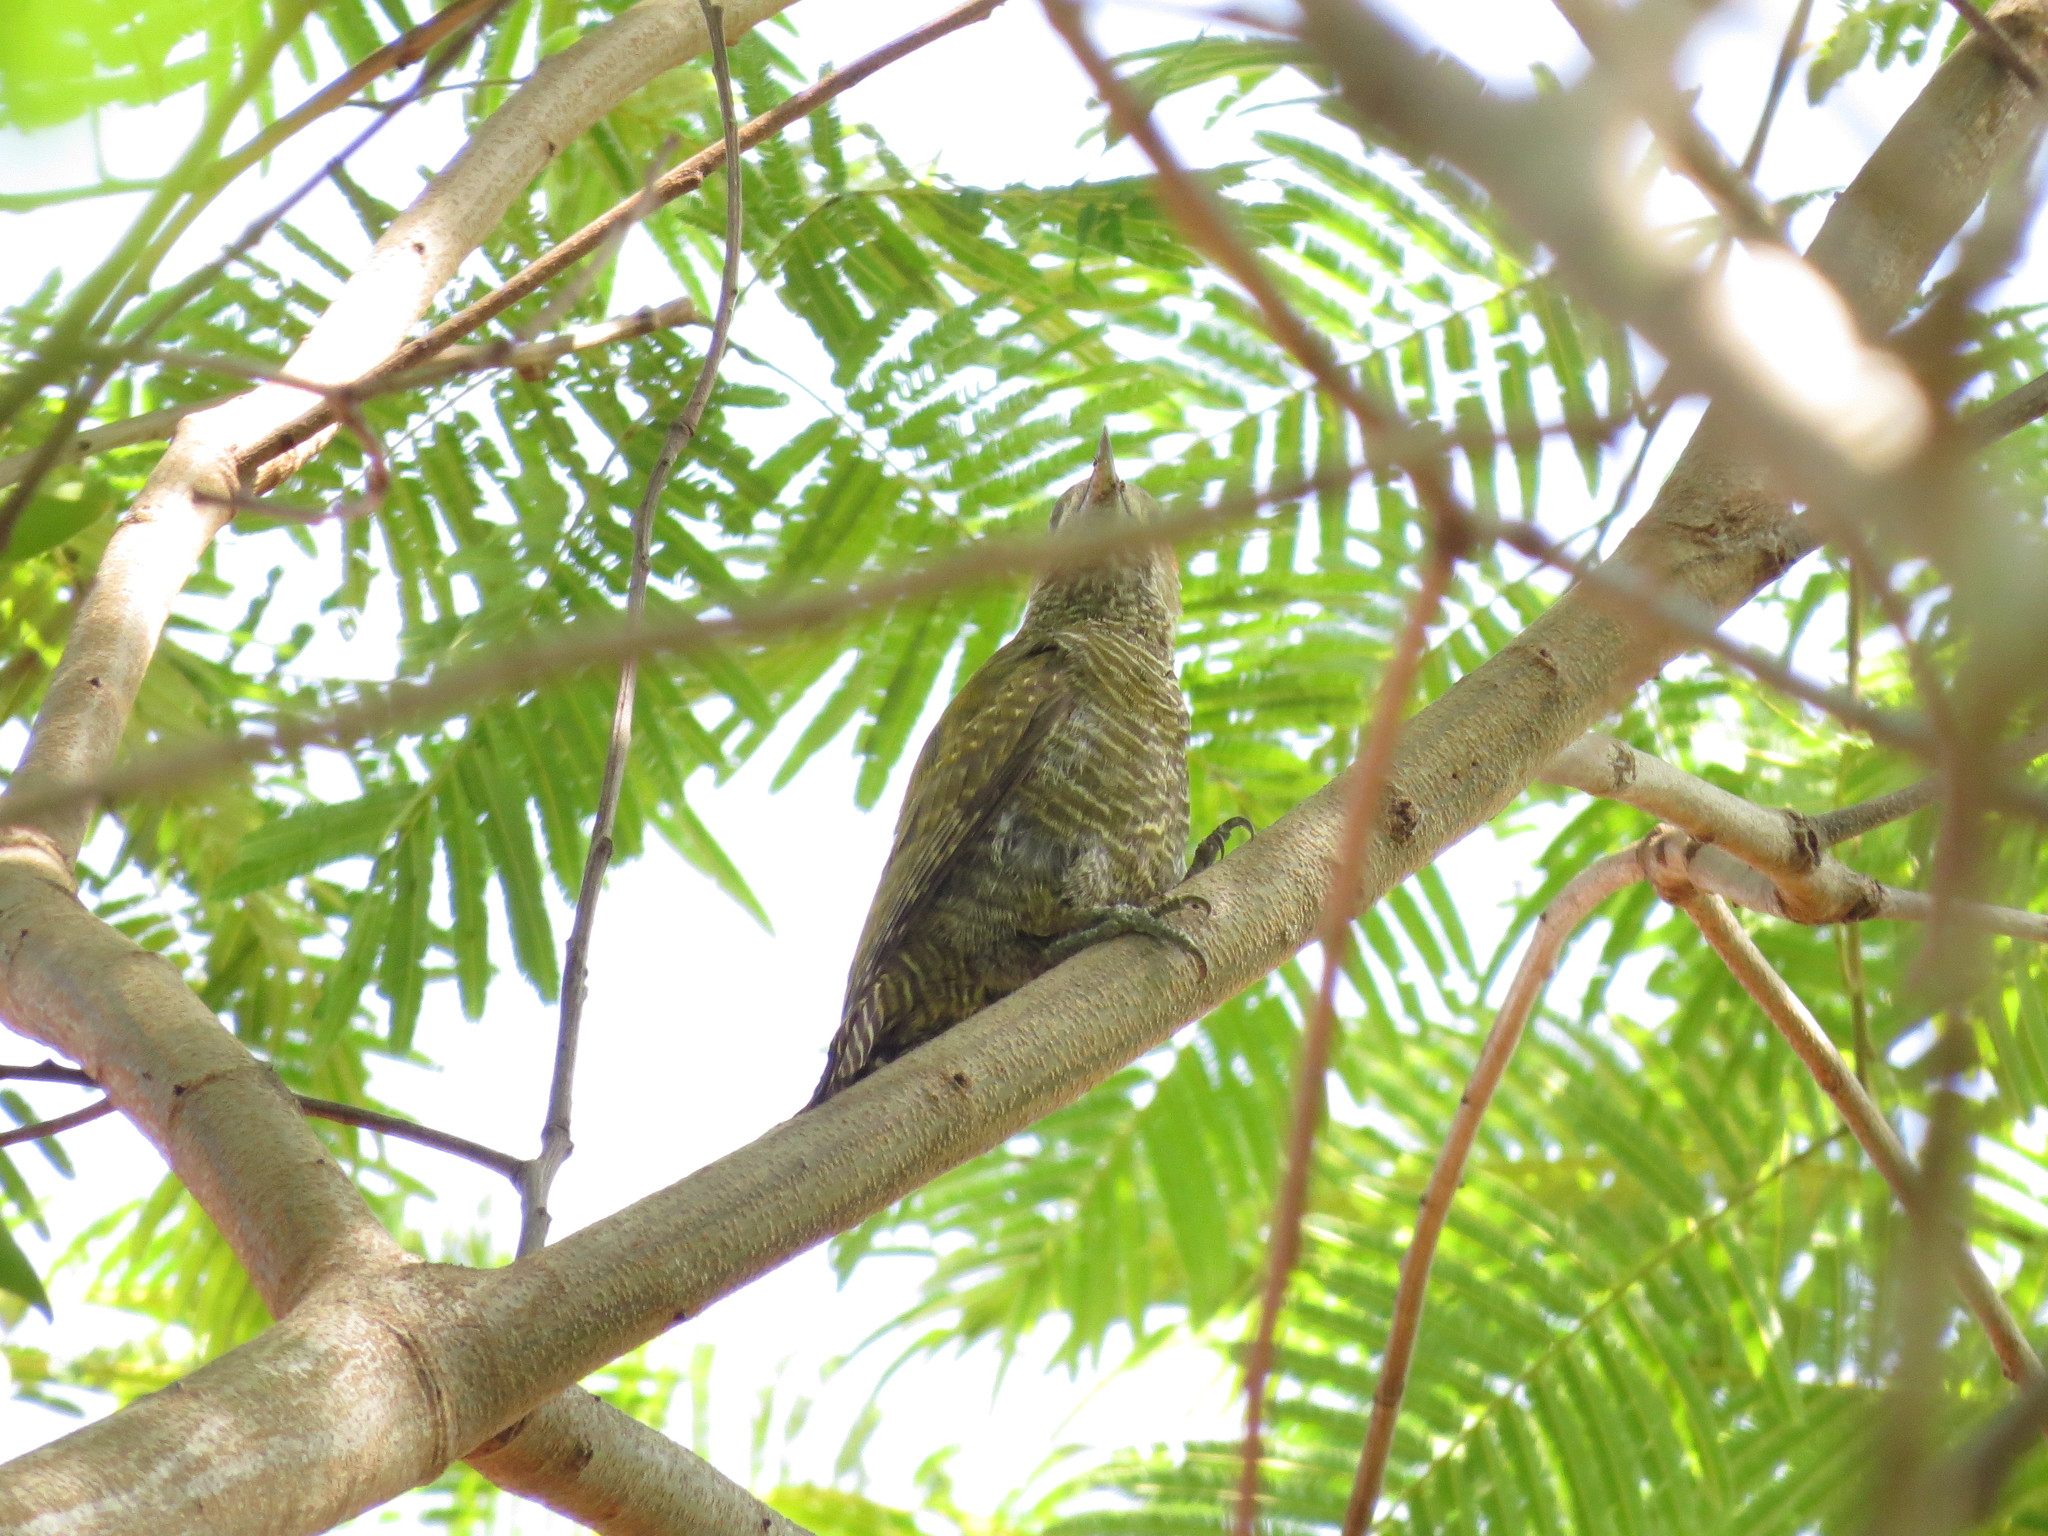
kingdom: Animalia
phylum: Chordata
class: Aves
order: Piciformes
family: Picidae
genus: Veniliornis
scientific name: Veniliornis passerinus
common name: Little woodpecker
